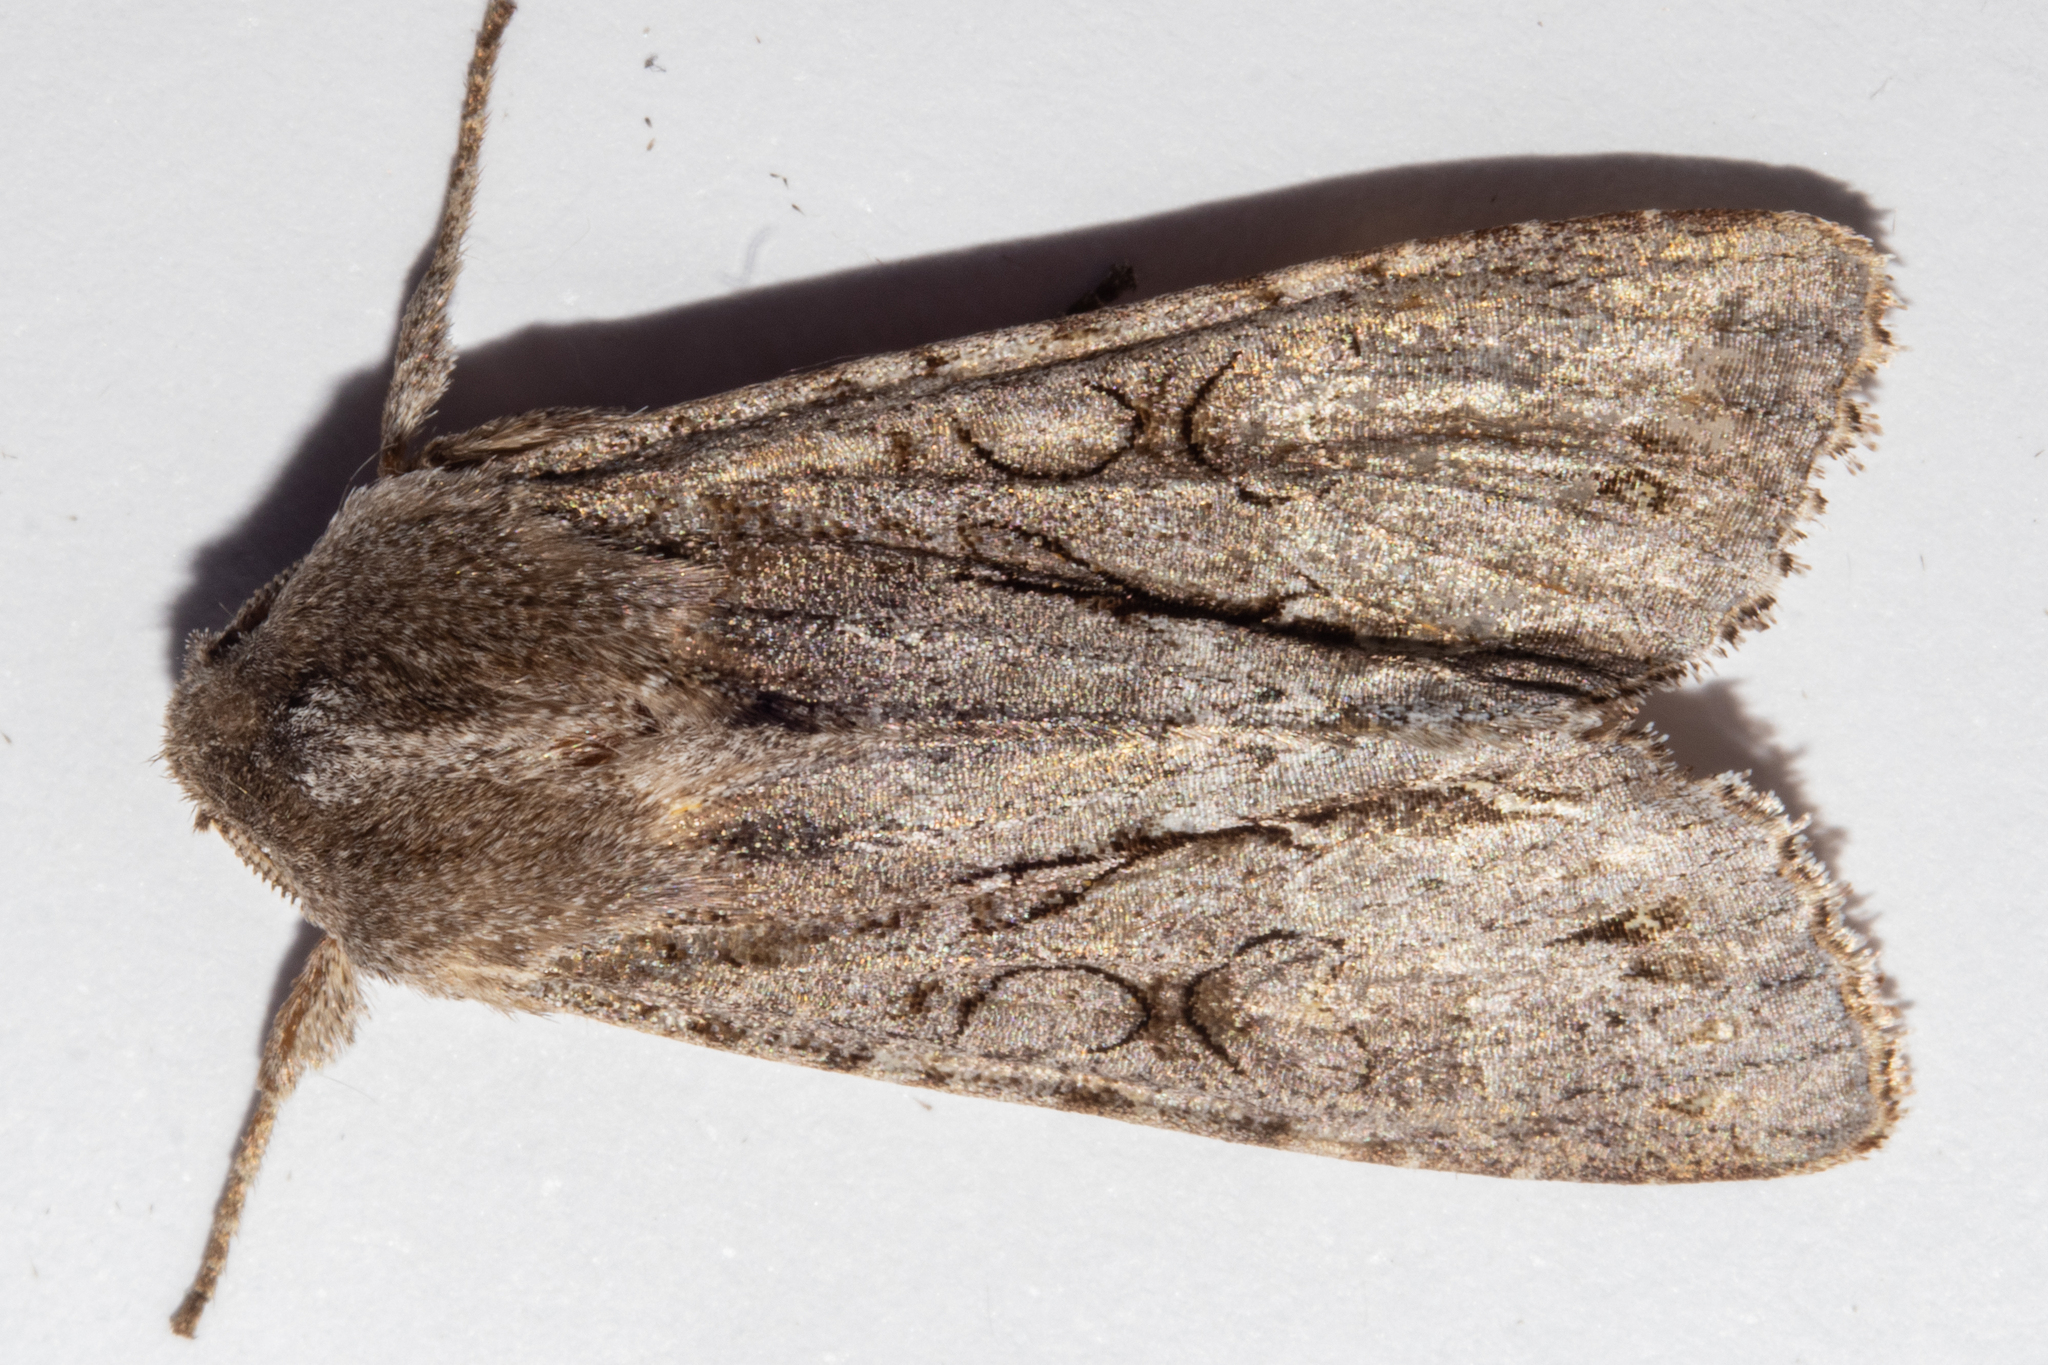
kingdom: Animalia
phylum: Arthropoda
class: Insecta
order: Lepidoptera
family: Noctuidae
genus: Ichneutica
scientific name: Ichneutica
